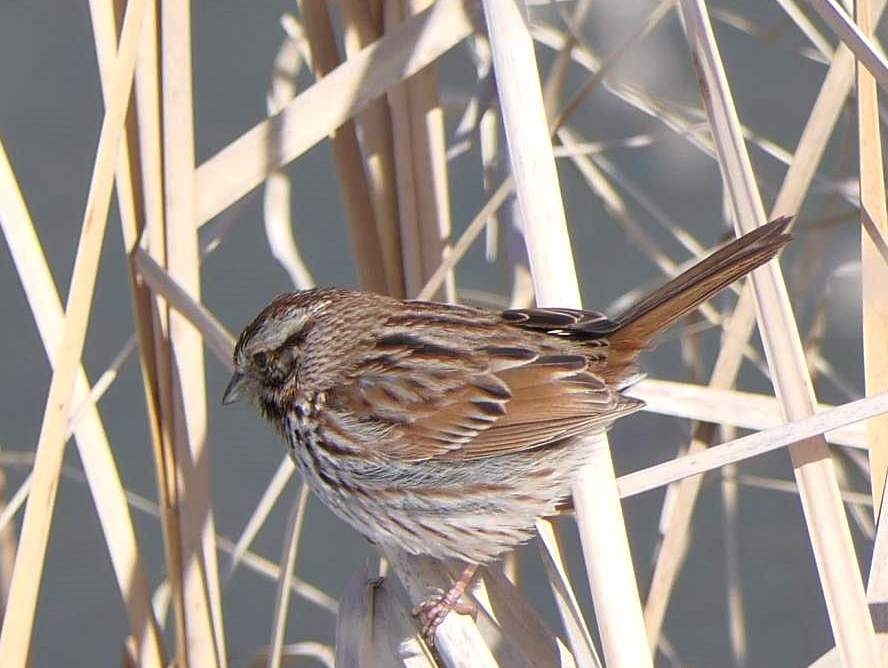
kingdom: Animalia
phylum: Chordata
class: Aves
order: Passeriformes
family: Passerellidae
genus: Melospiza
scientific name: Melospiza melodia
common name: Song sparrow
